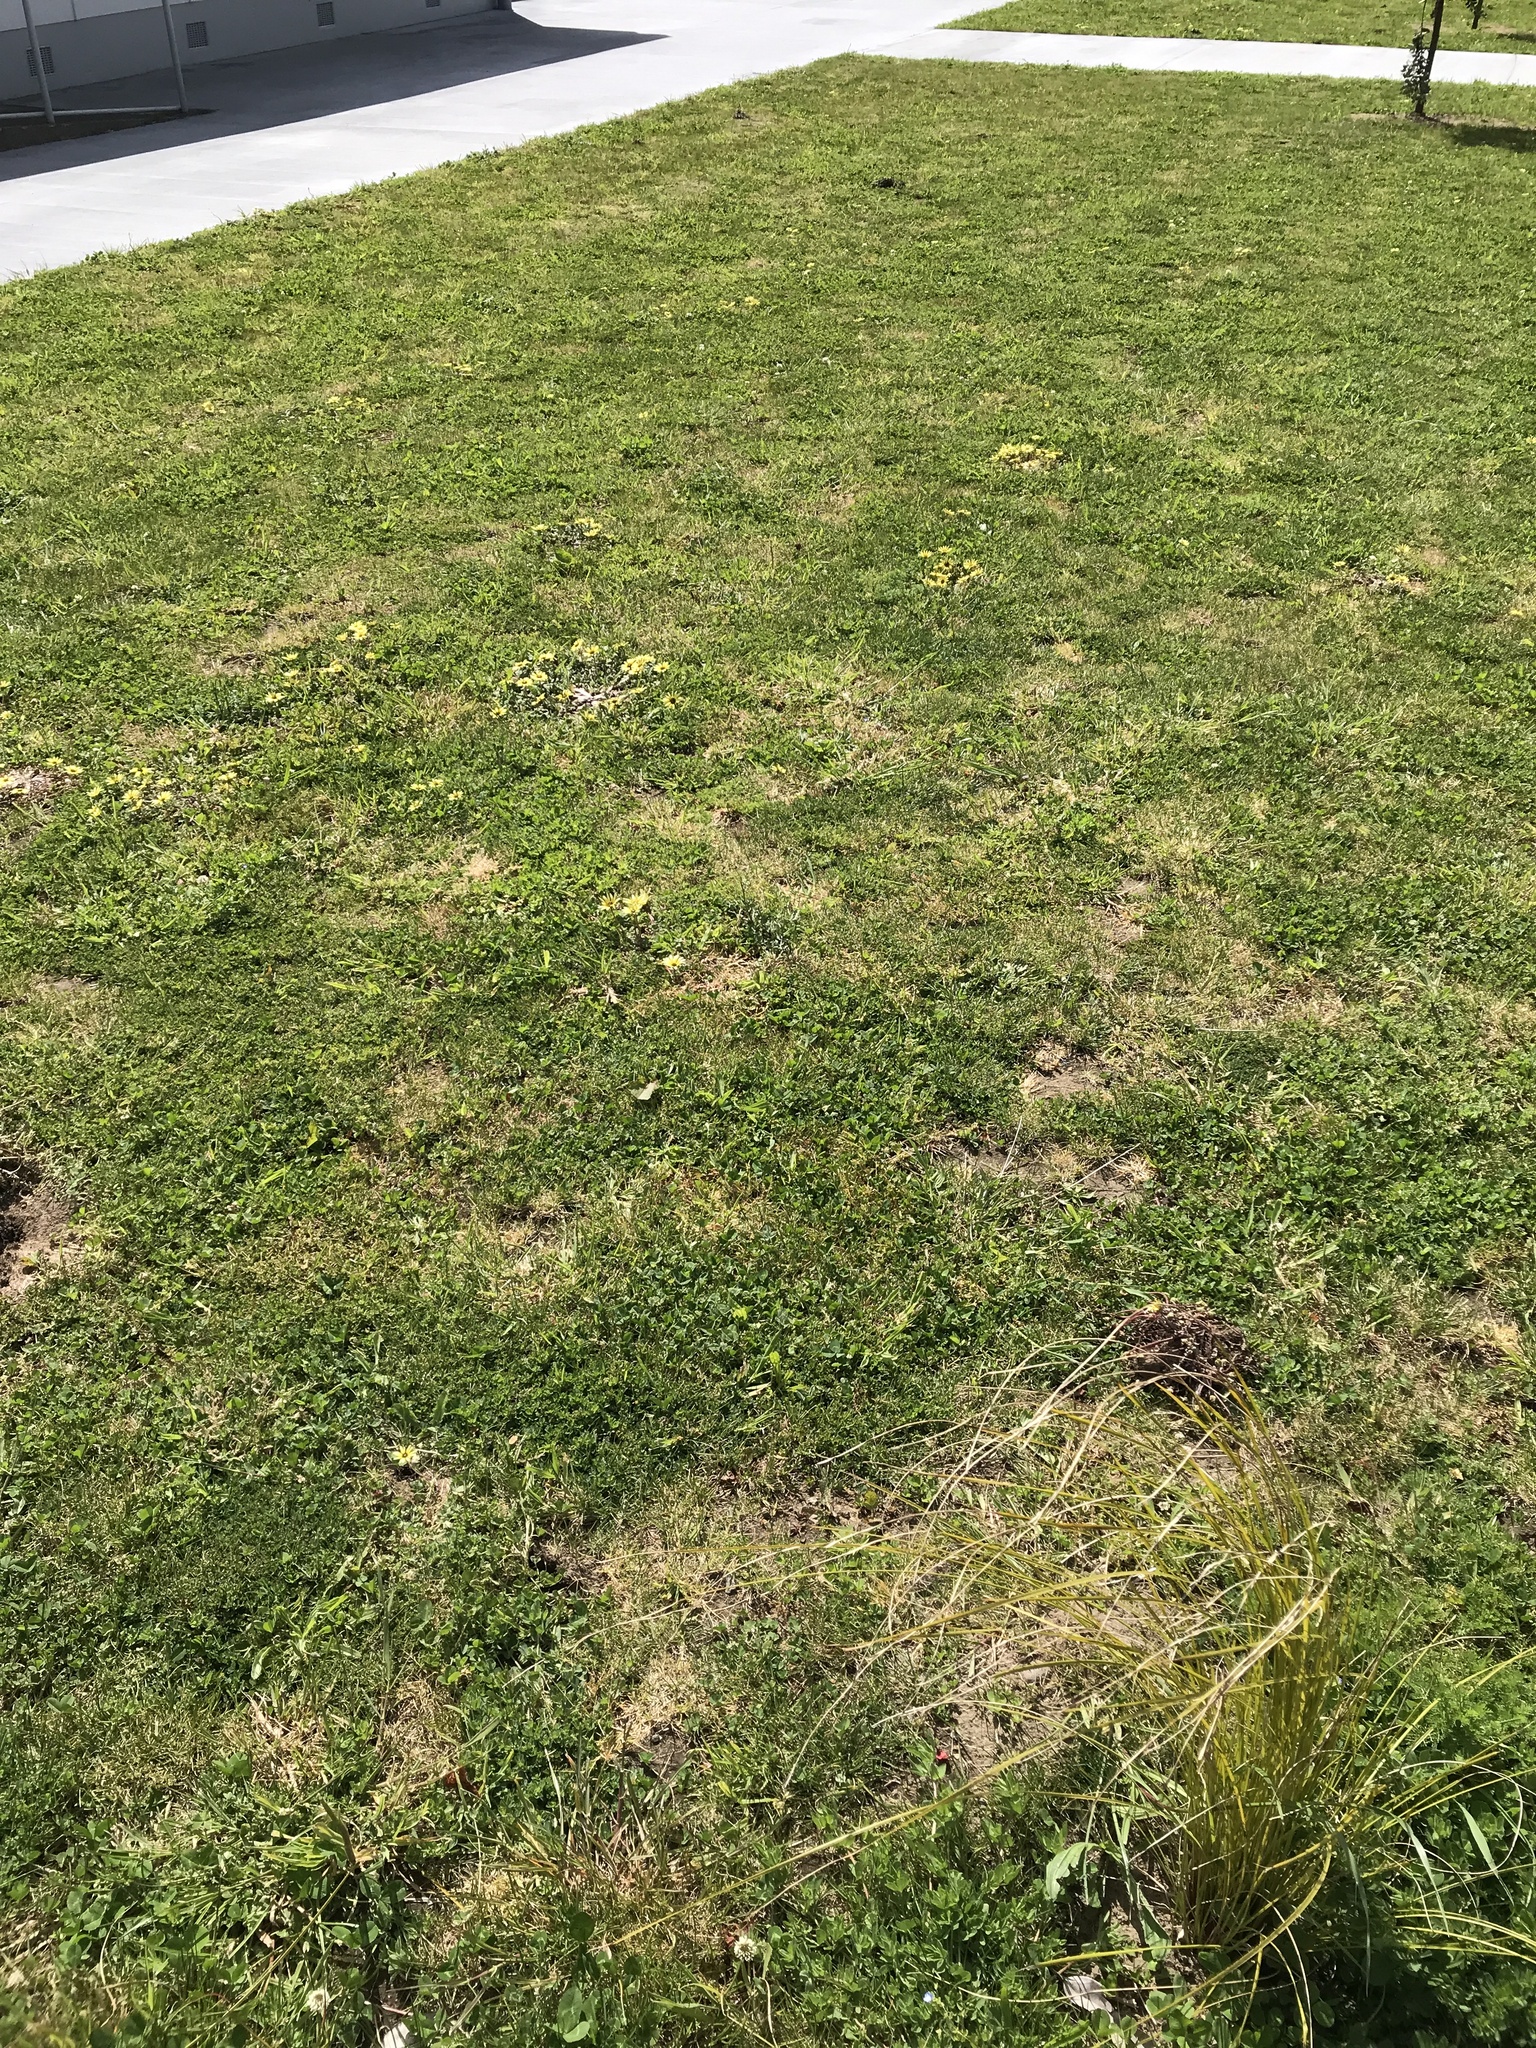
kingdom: Plantae
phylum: Tracheophyta
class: Magnoliopsida
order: Asterales
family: Asteraceae
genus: Arctotheca
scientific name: Arctotheca calendula
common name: Capeweed
